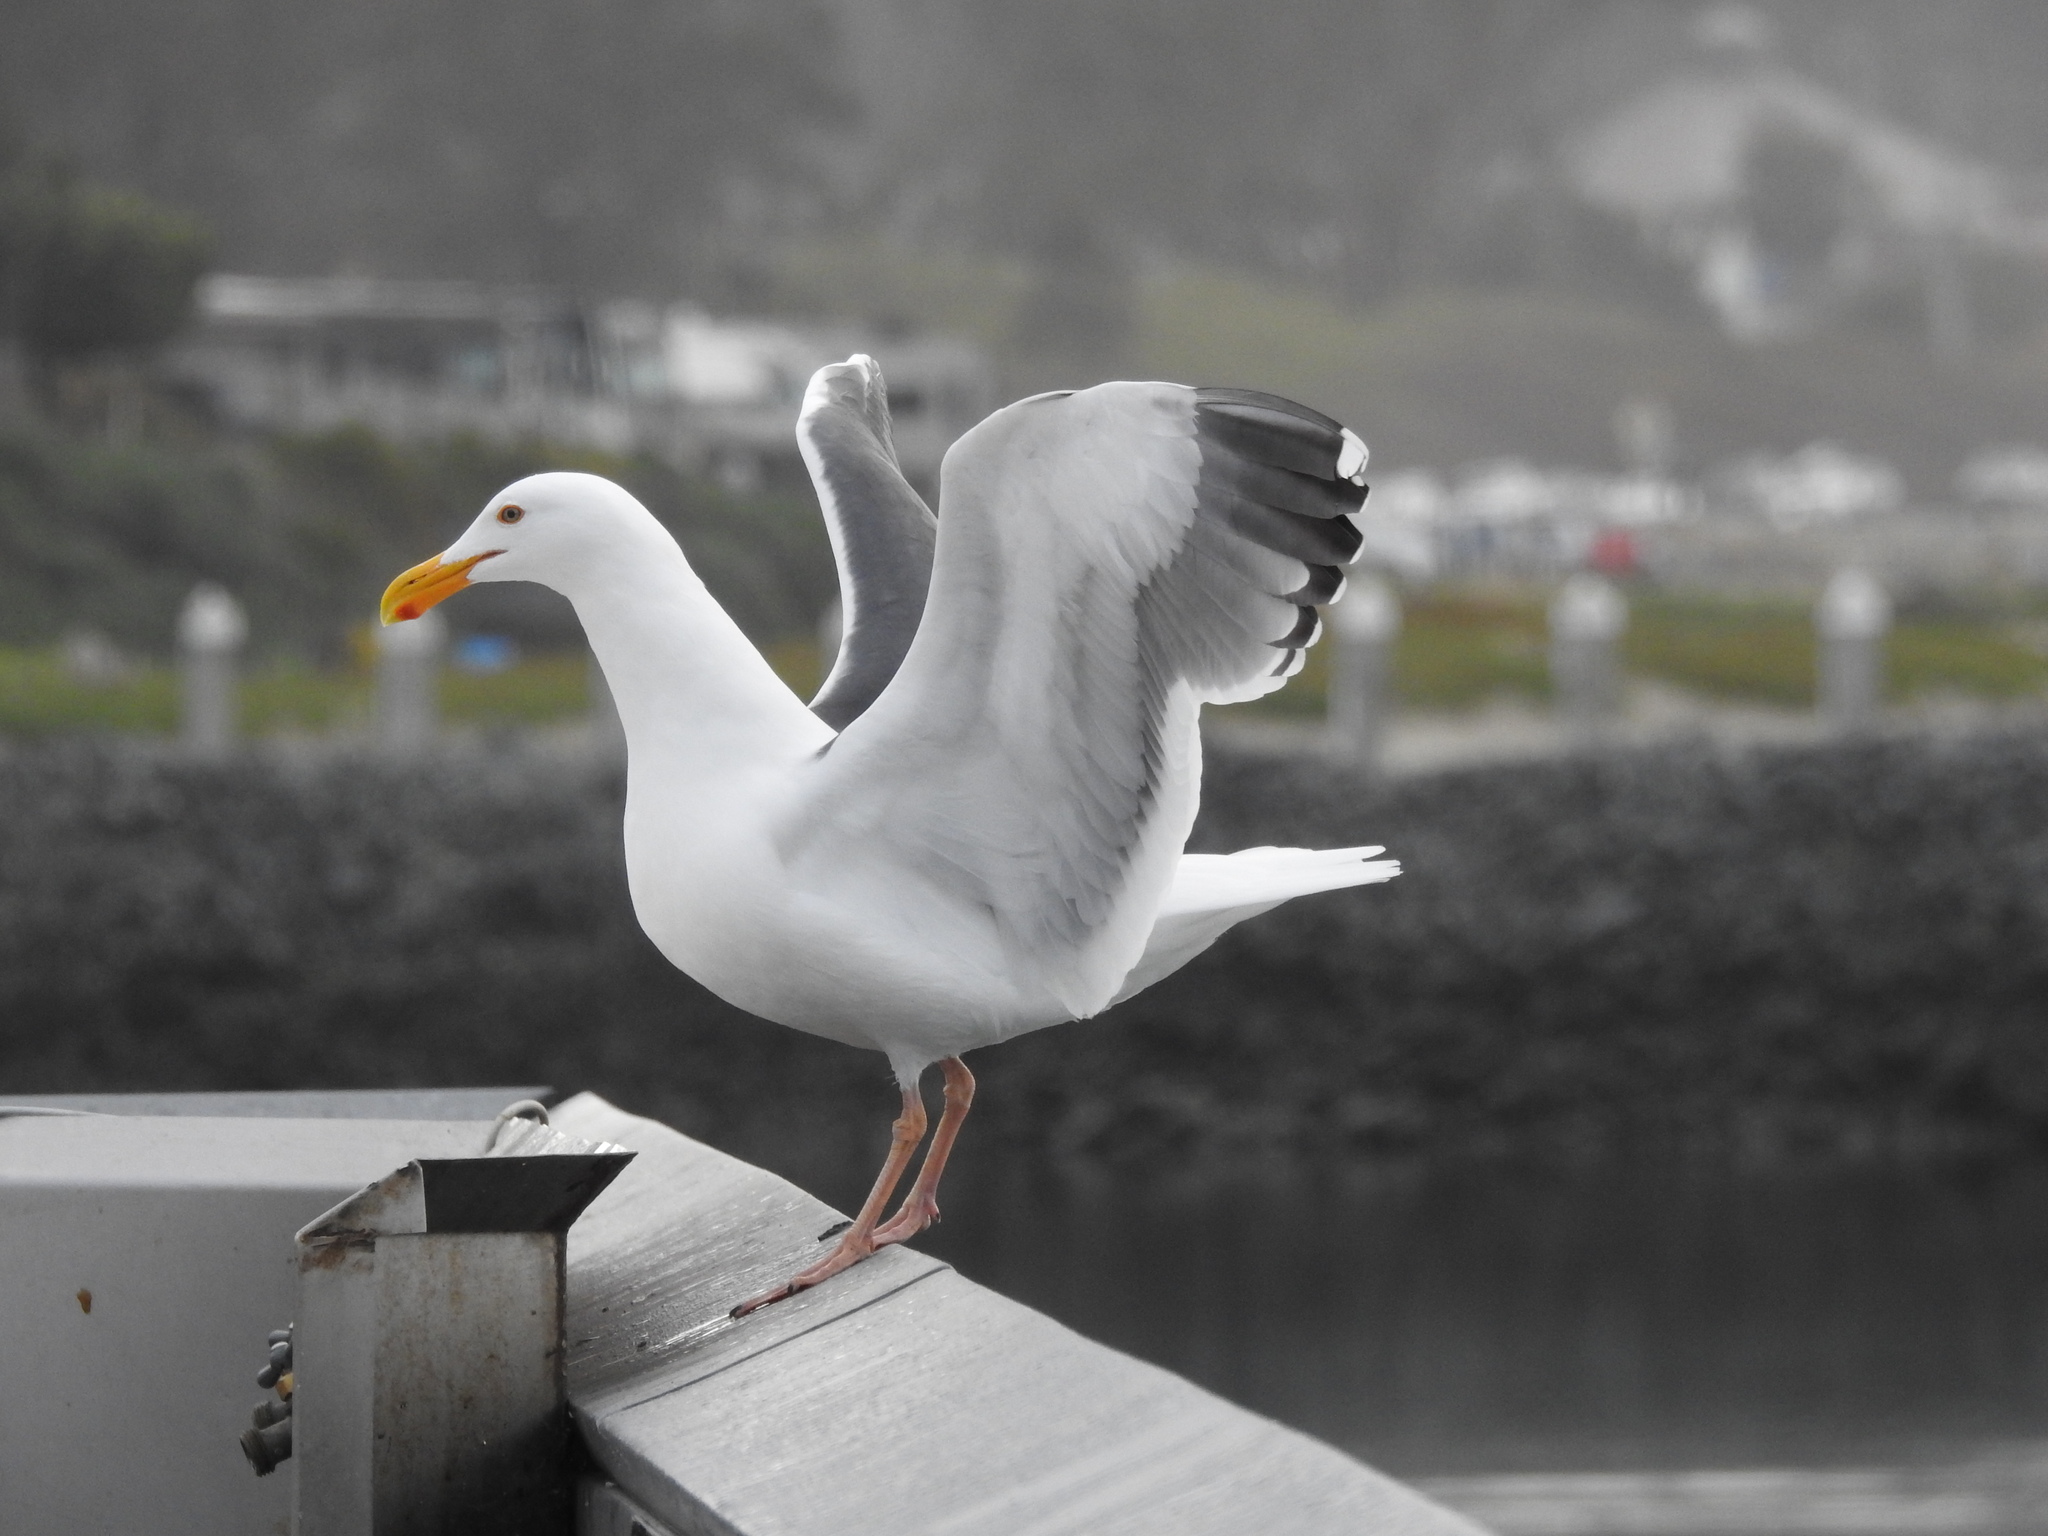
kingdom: Animalia
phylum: Chordata
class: Aves
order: Charadriiformes
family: Laridae
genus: Larus
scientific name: Larus occidentalis
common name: Western gull
